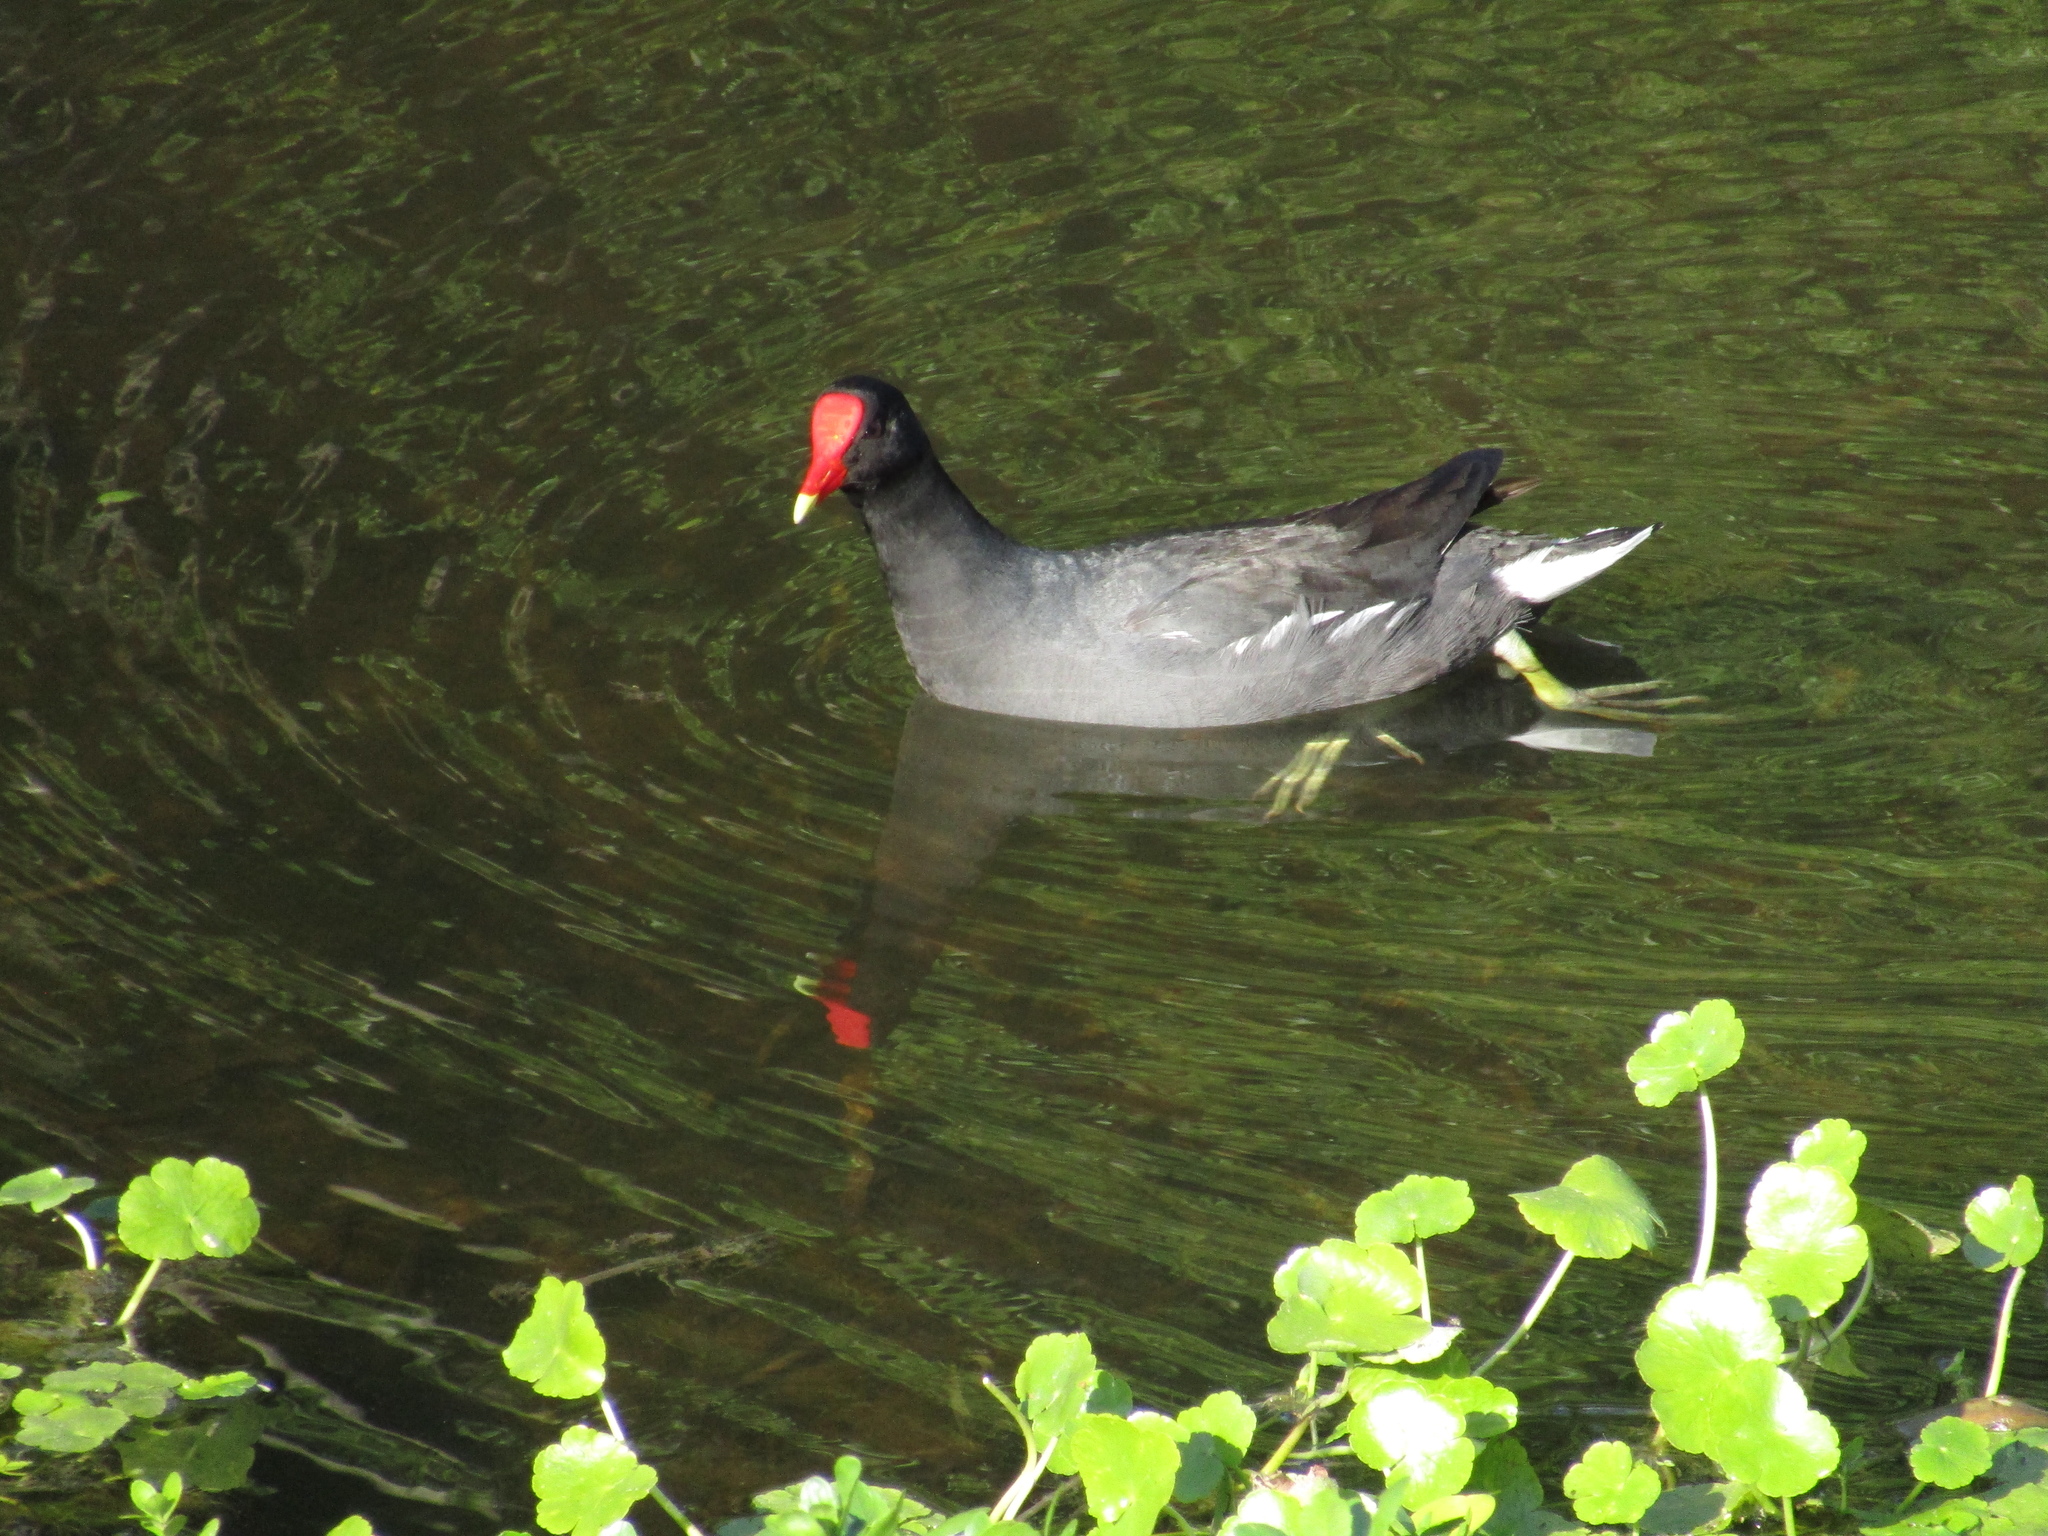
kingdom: Animalia
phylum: Chordata
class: Aves
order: Gruiformes
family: Rallidae
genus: Gallinula
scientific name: Gallinula chloropus
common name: Common moorhen
